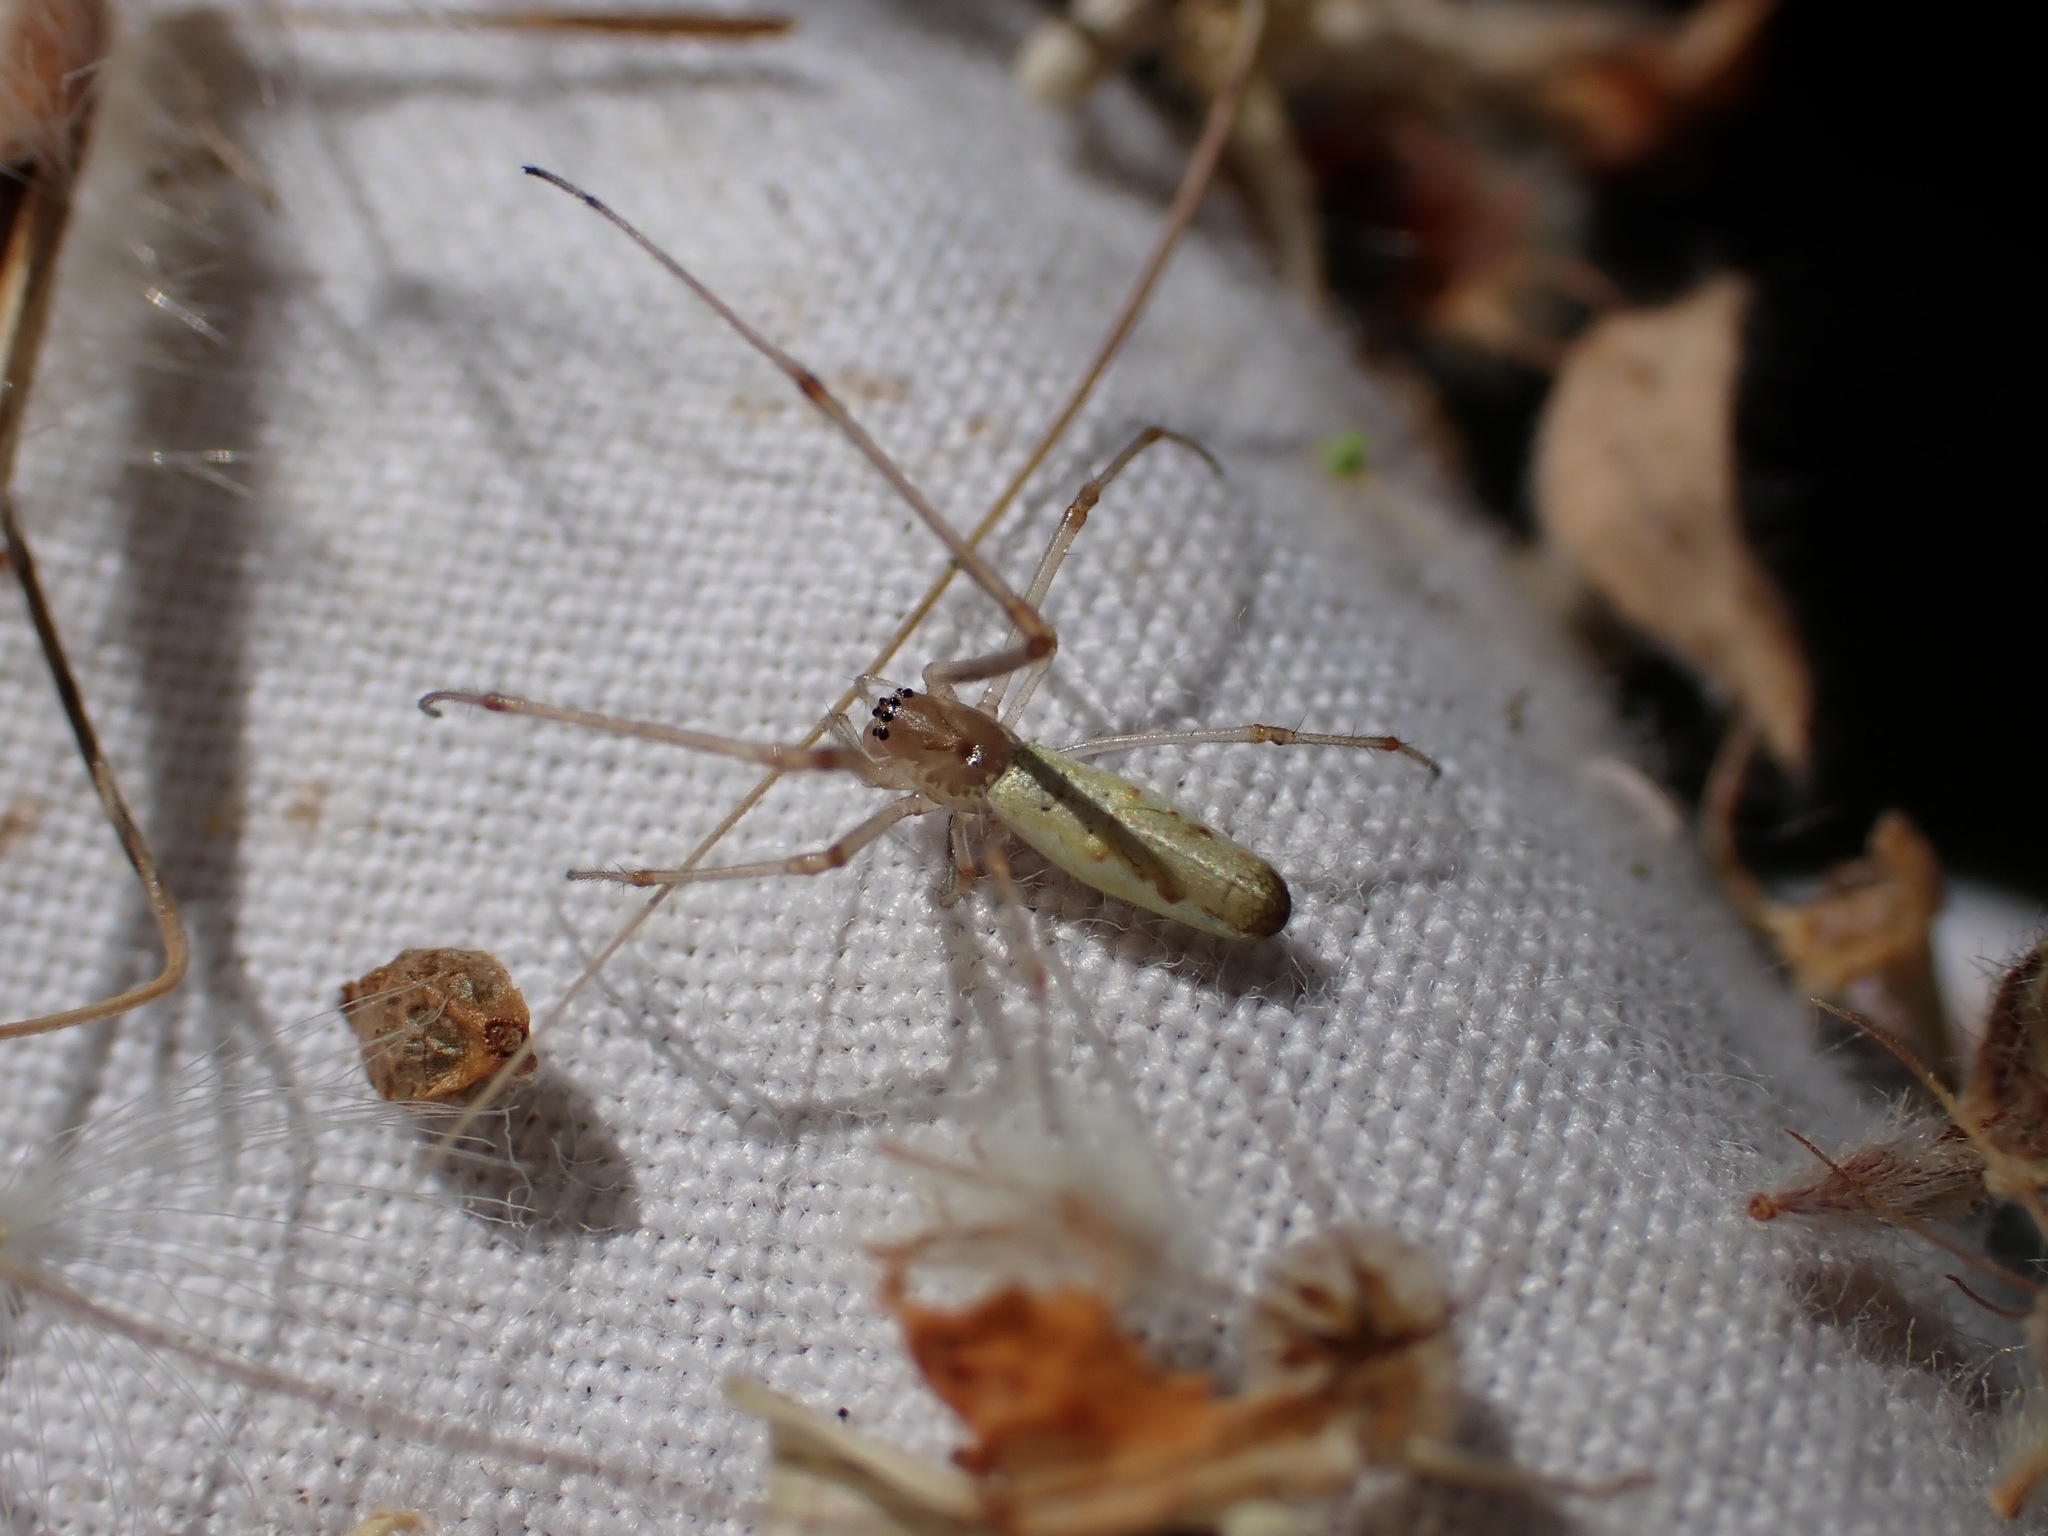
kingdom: Animalia
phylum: Arthropoda
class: Arachnida
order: Araneae
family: Tetragnathidae
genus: Tetragnatha
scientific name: Tetragnatha
